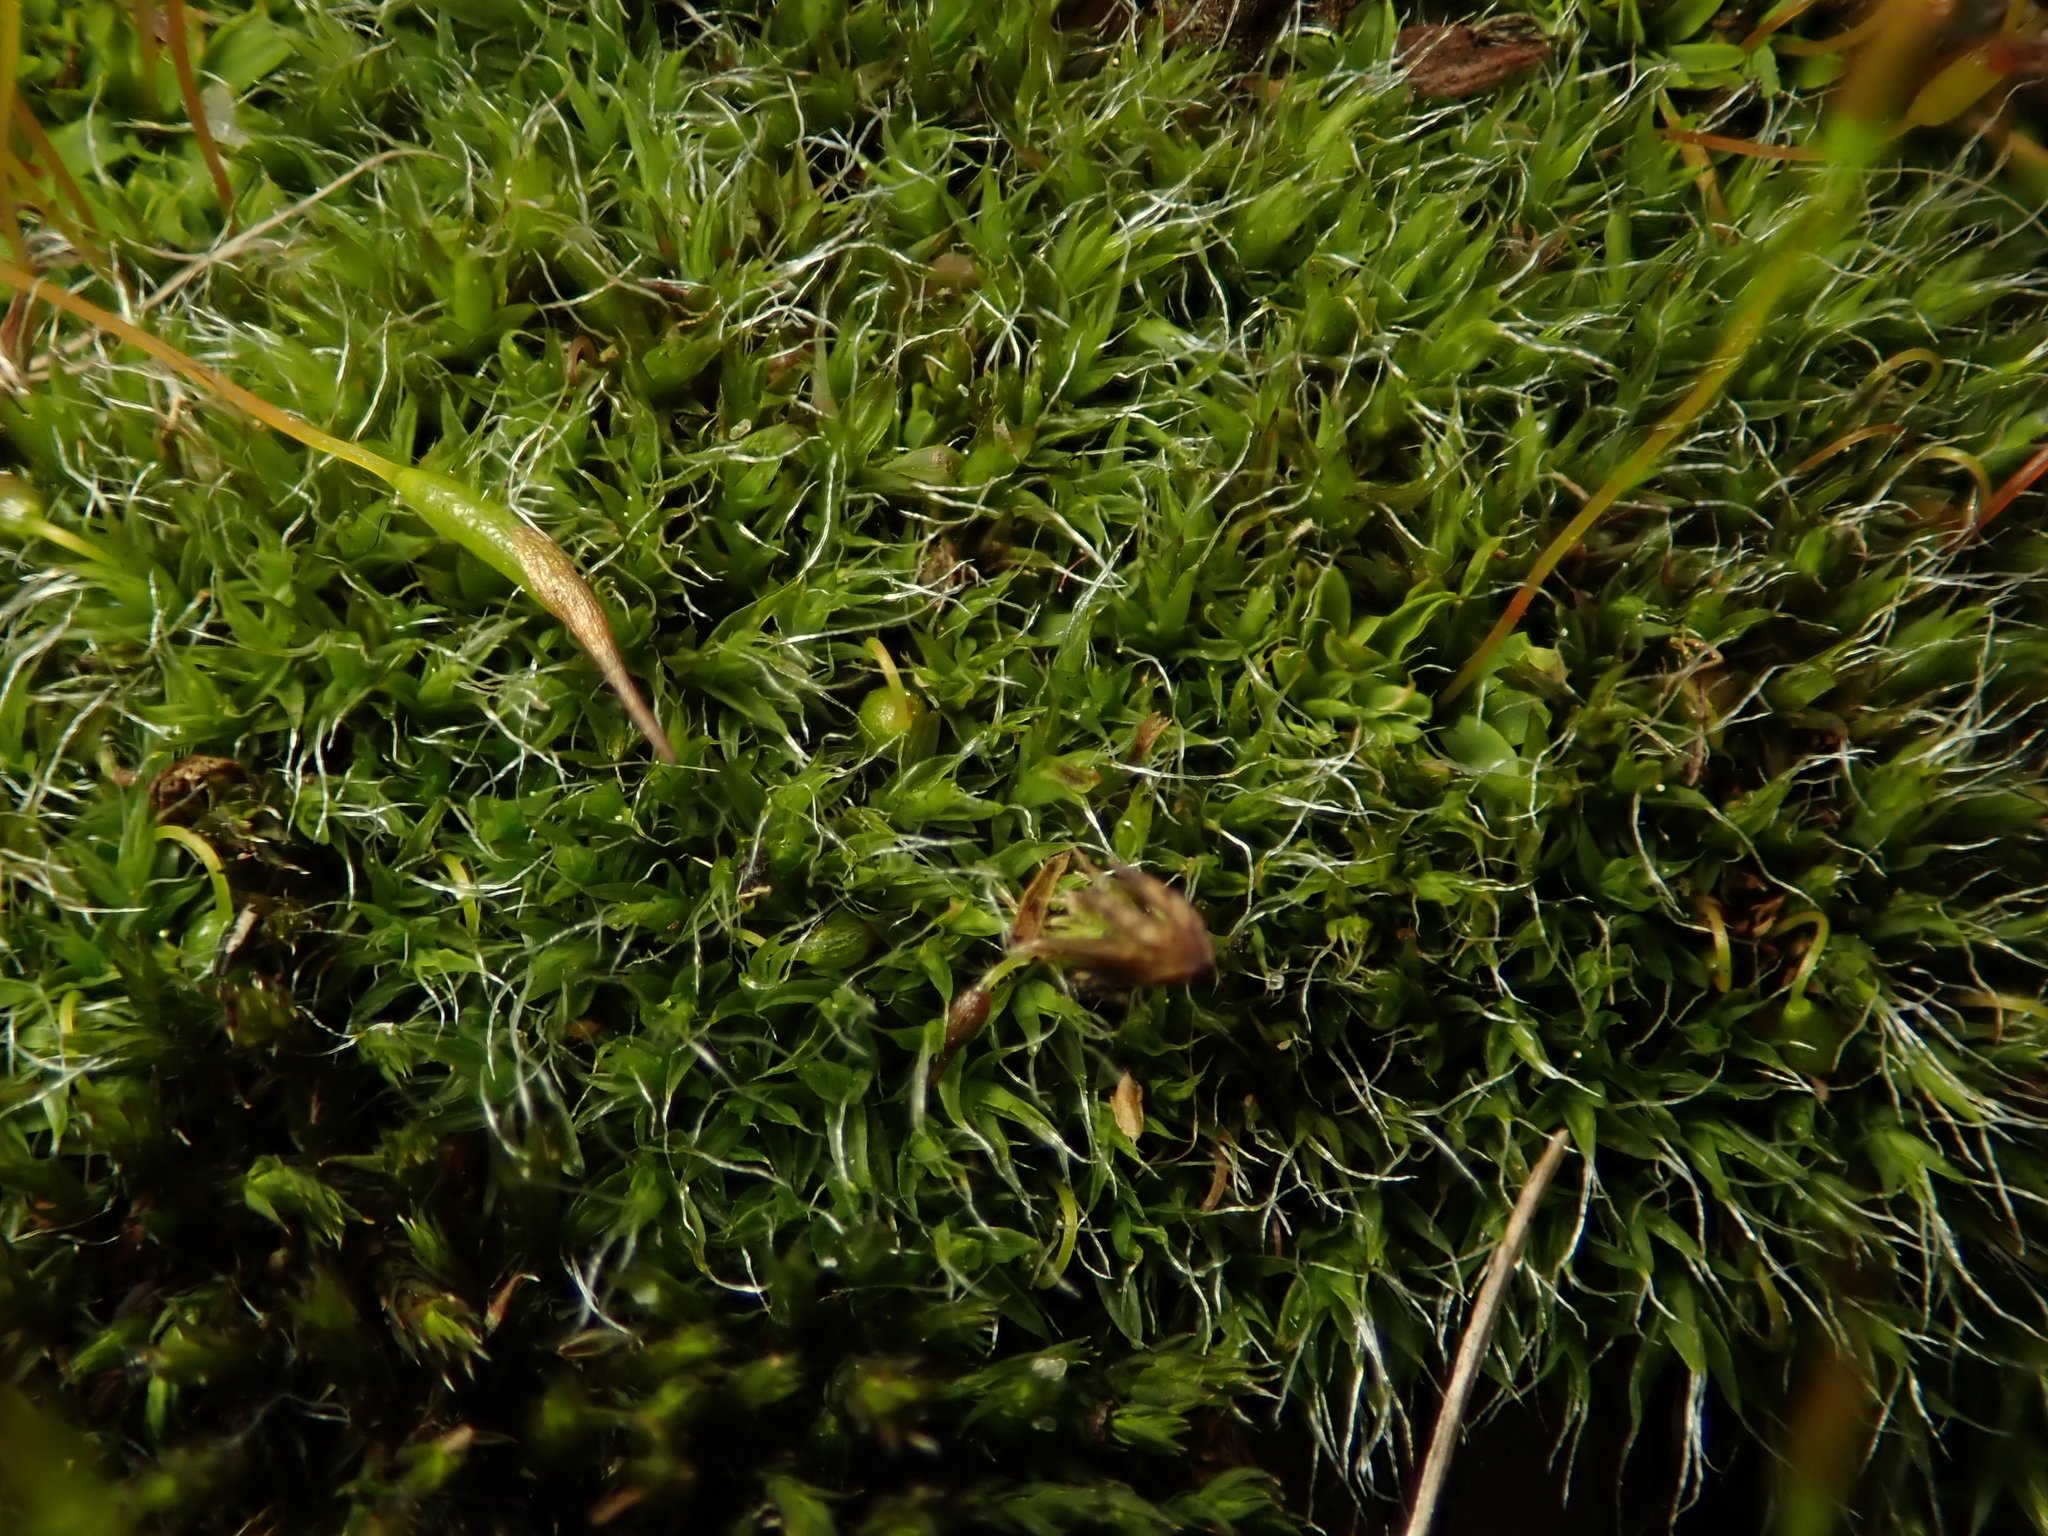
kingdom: Plantae
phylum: Bryophyta
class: Bryopsida
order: Grimmiales
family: Grimmiaceae
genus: Grimmia
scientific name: Grimmia pulvinata
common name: Grey-cushioned grimmia
